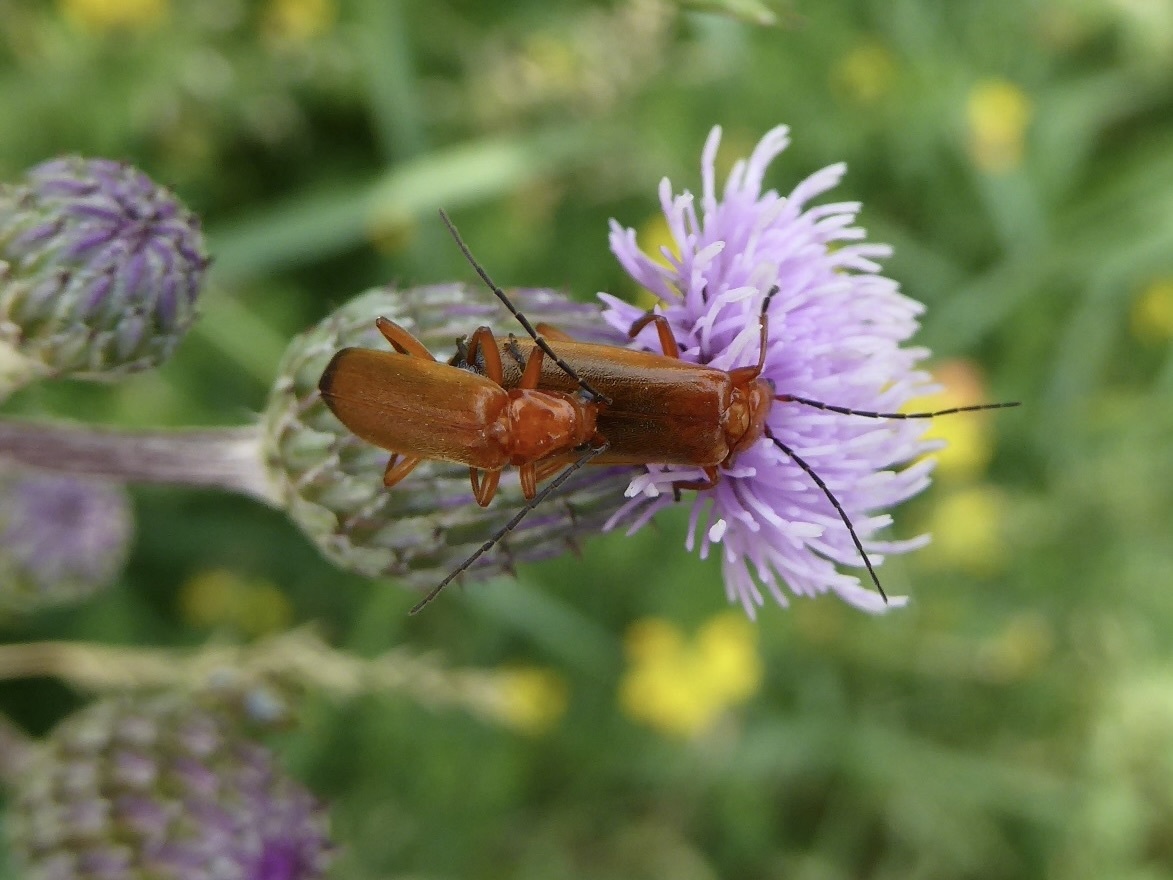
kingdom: Animalia
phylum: Arthropoda
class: Insecta
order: Coleoptera
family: Cantharidae
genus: Rhagonycha
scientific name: Rhagonycha fulva
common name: Common red soldier beetle
